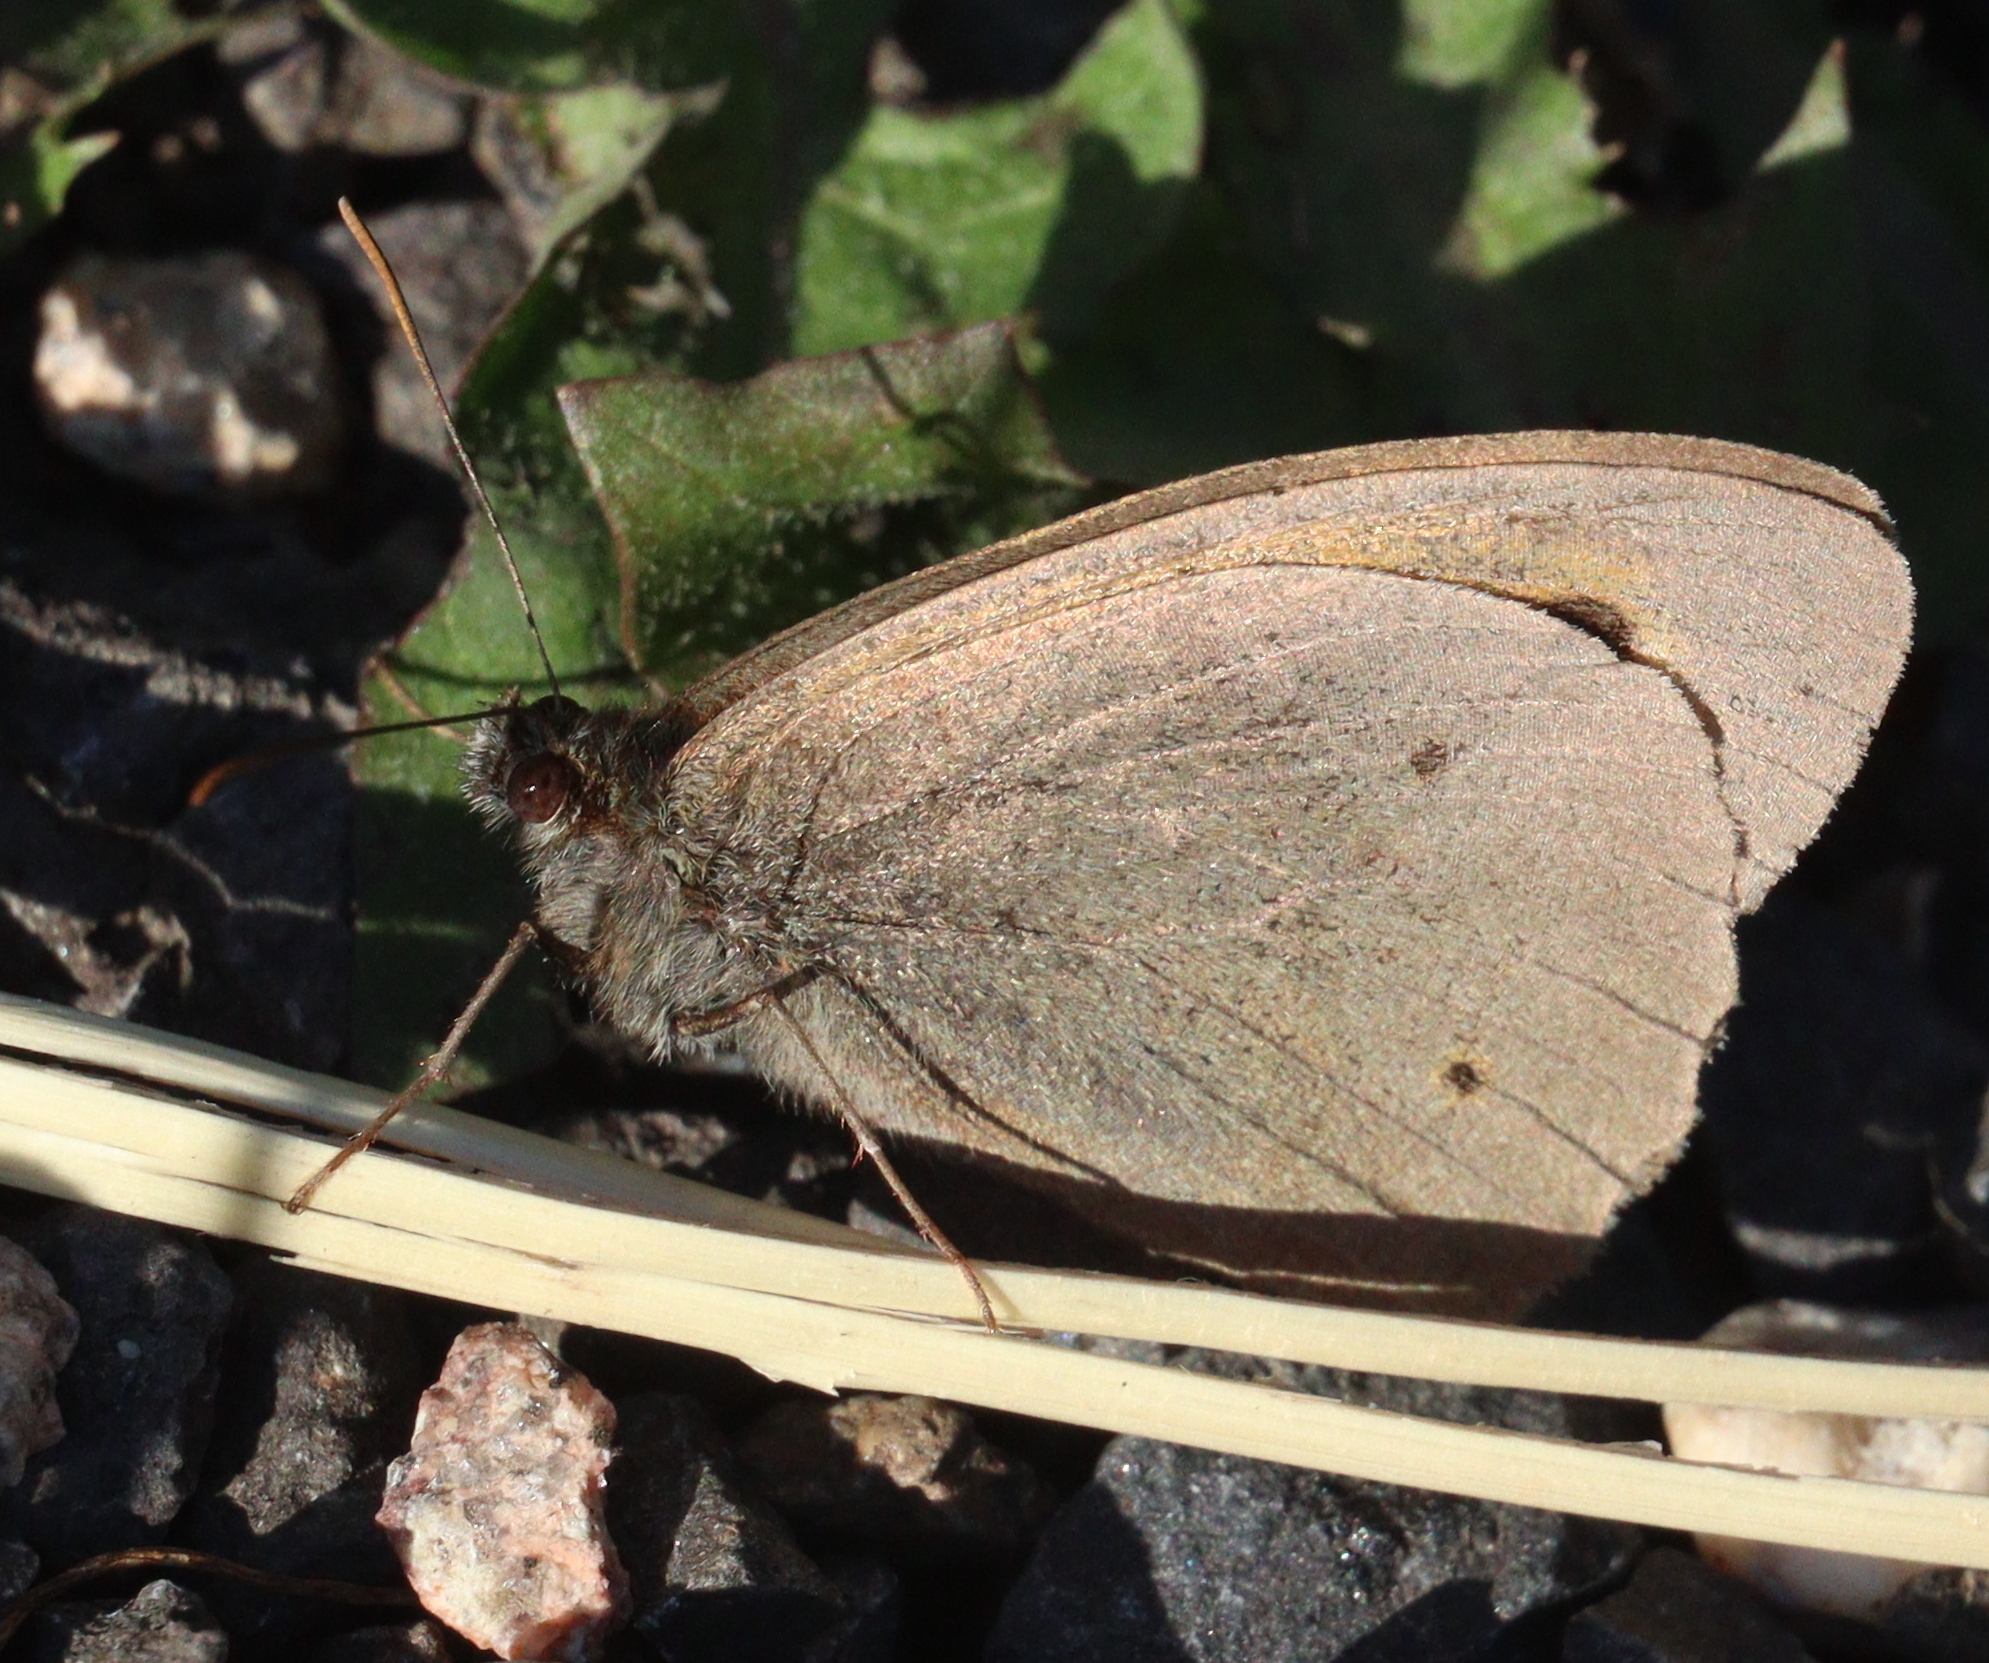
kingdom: Animalia
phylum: Arthropoda
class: Insecta
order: Lepidoptera
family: Nymphalidae
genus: Maniola
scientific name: Maniola jurtina
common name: Meadow brown
